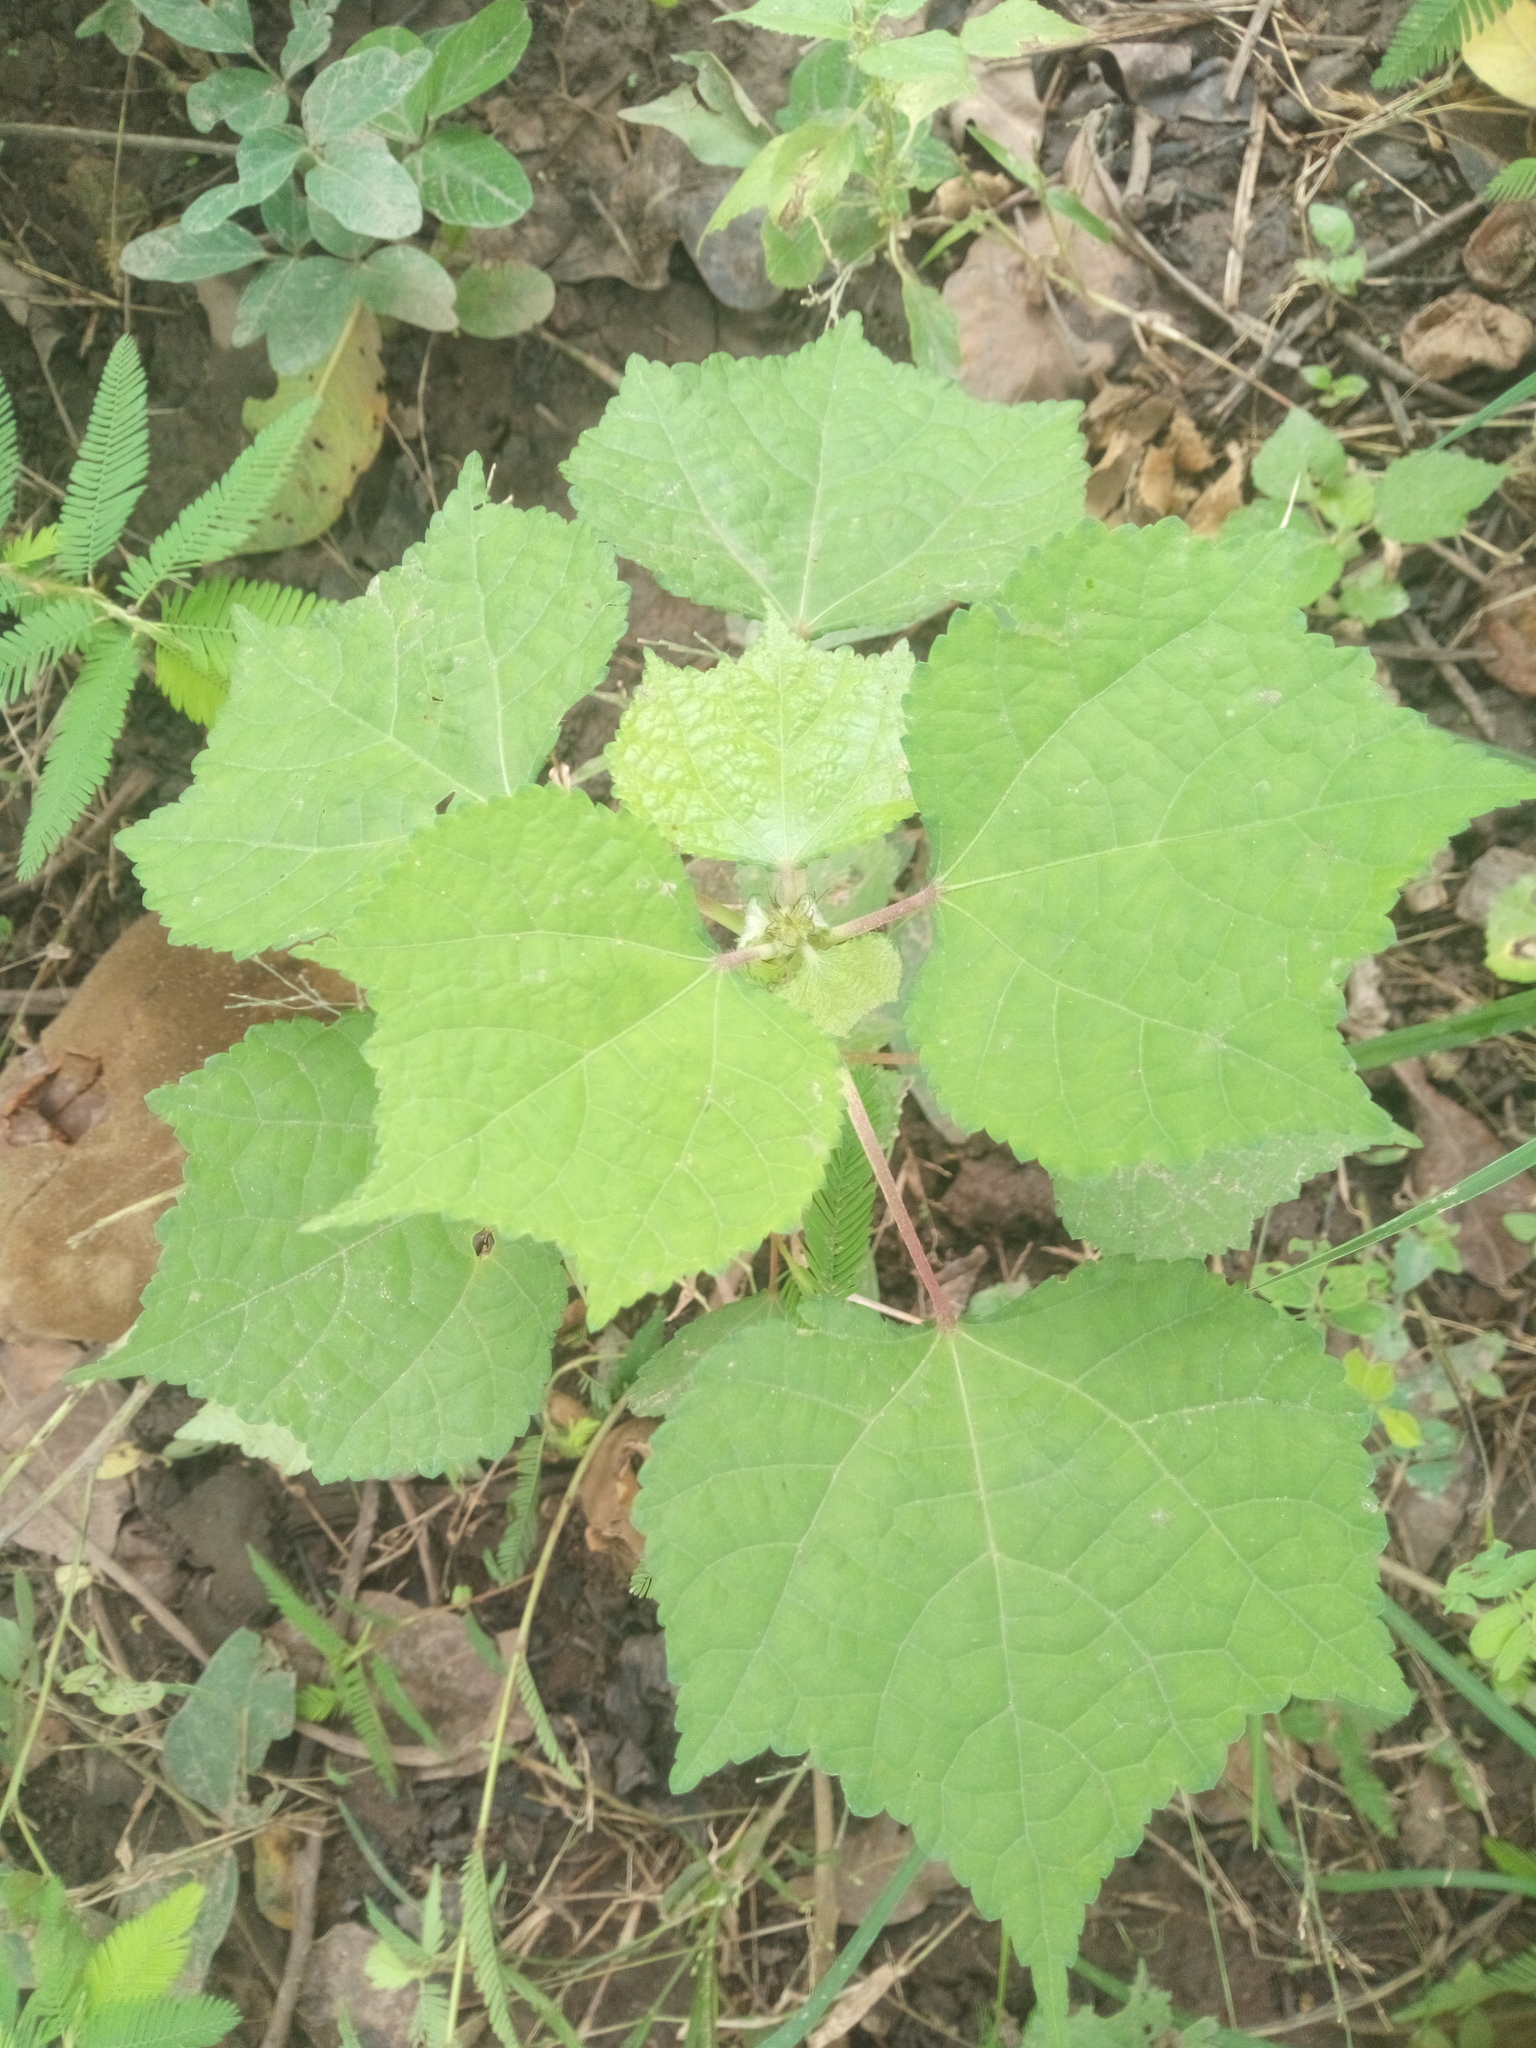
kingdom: Plantae
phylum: Tracheophyta
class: Magnoliopsida
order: Malvales
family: Malvaceae
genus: Triumfetta
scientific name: Triumfetta rhomboidea
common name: Diamond burbark
